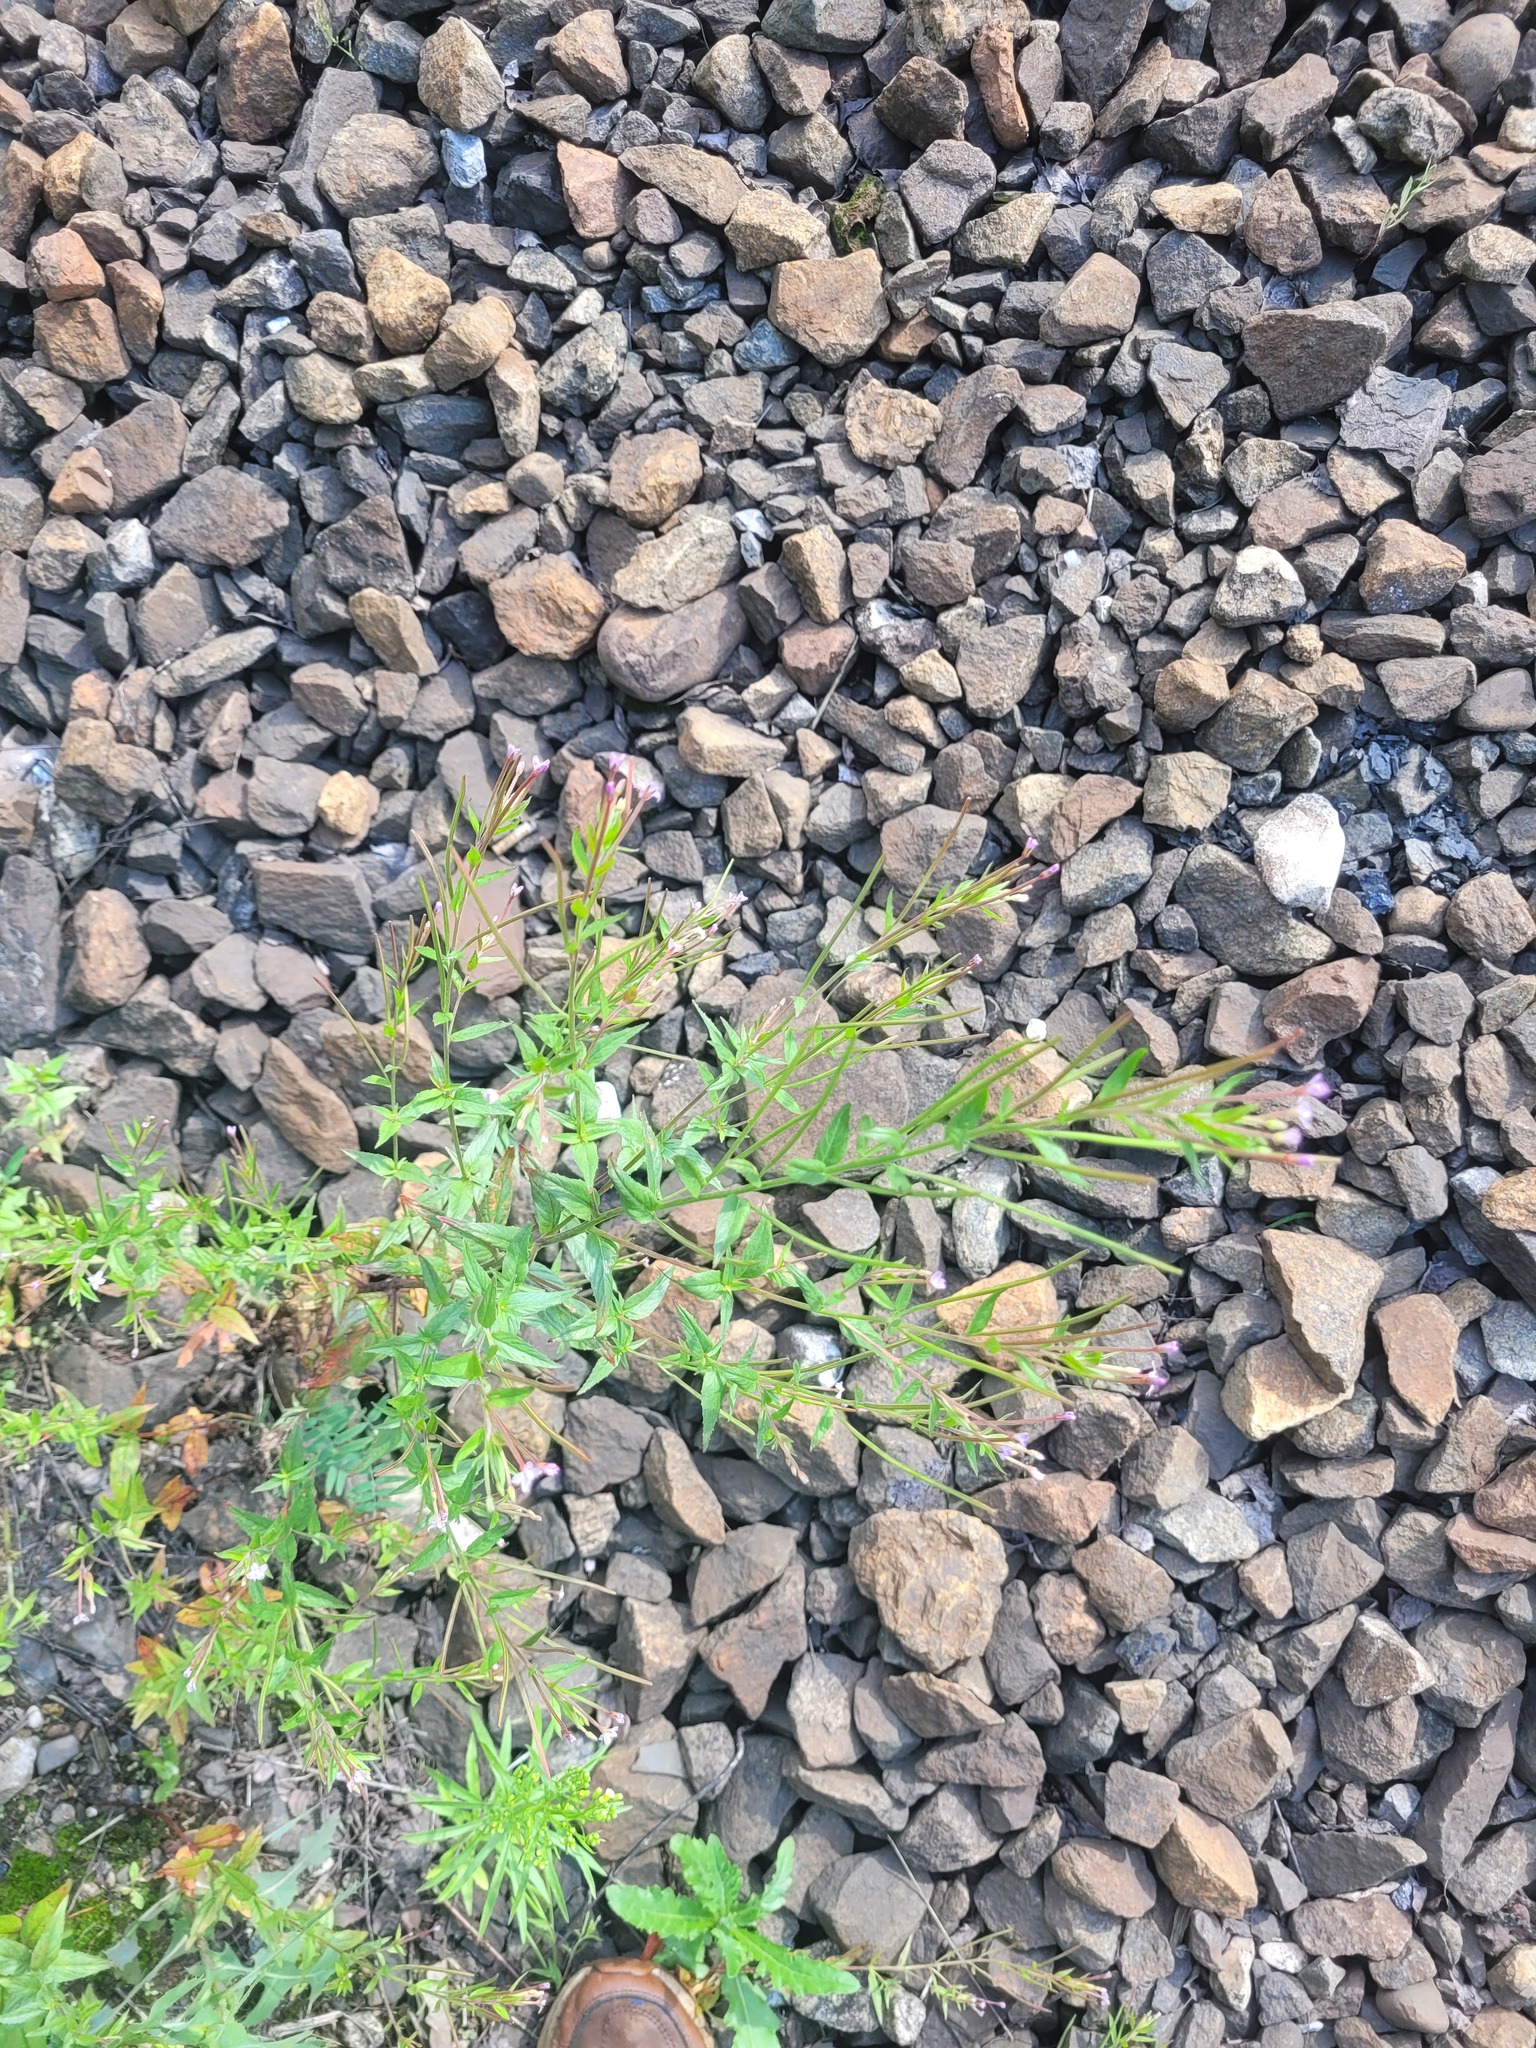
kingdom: Plantae
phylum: Tracheophyta
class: Magnoliopsida
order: Myrtales
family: Onagraceae
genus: Epilobium
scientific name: Epilobium ciliatum
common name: American willowherb
